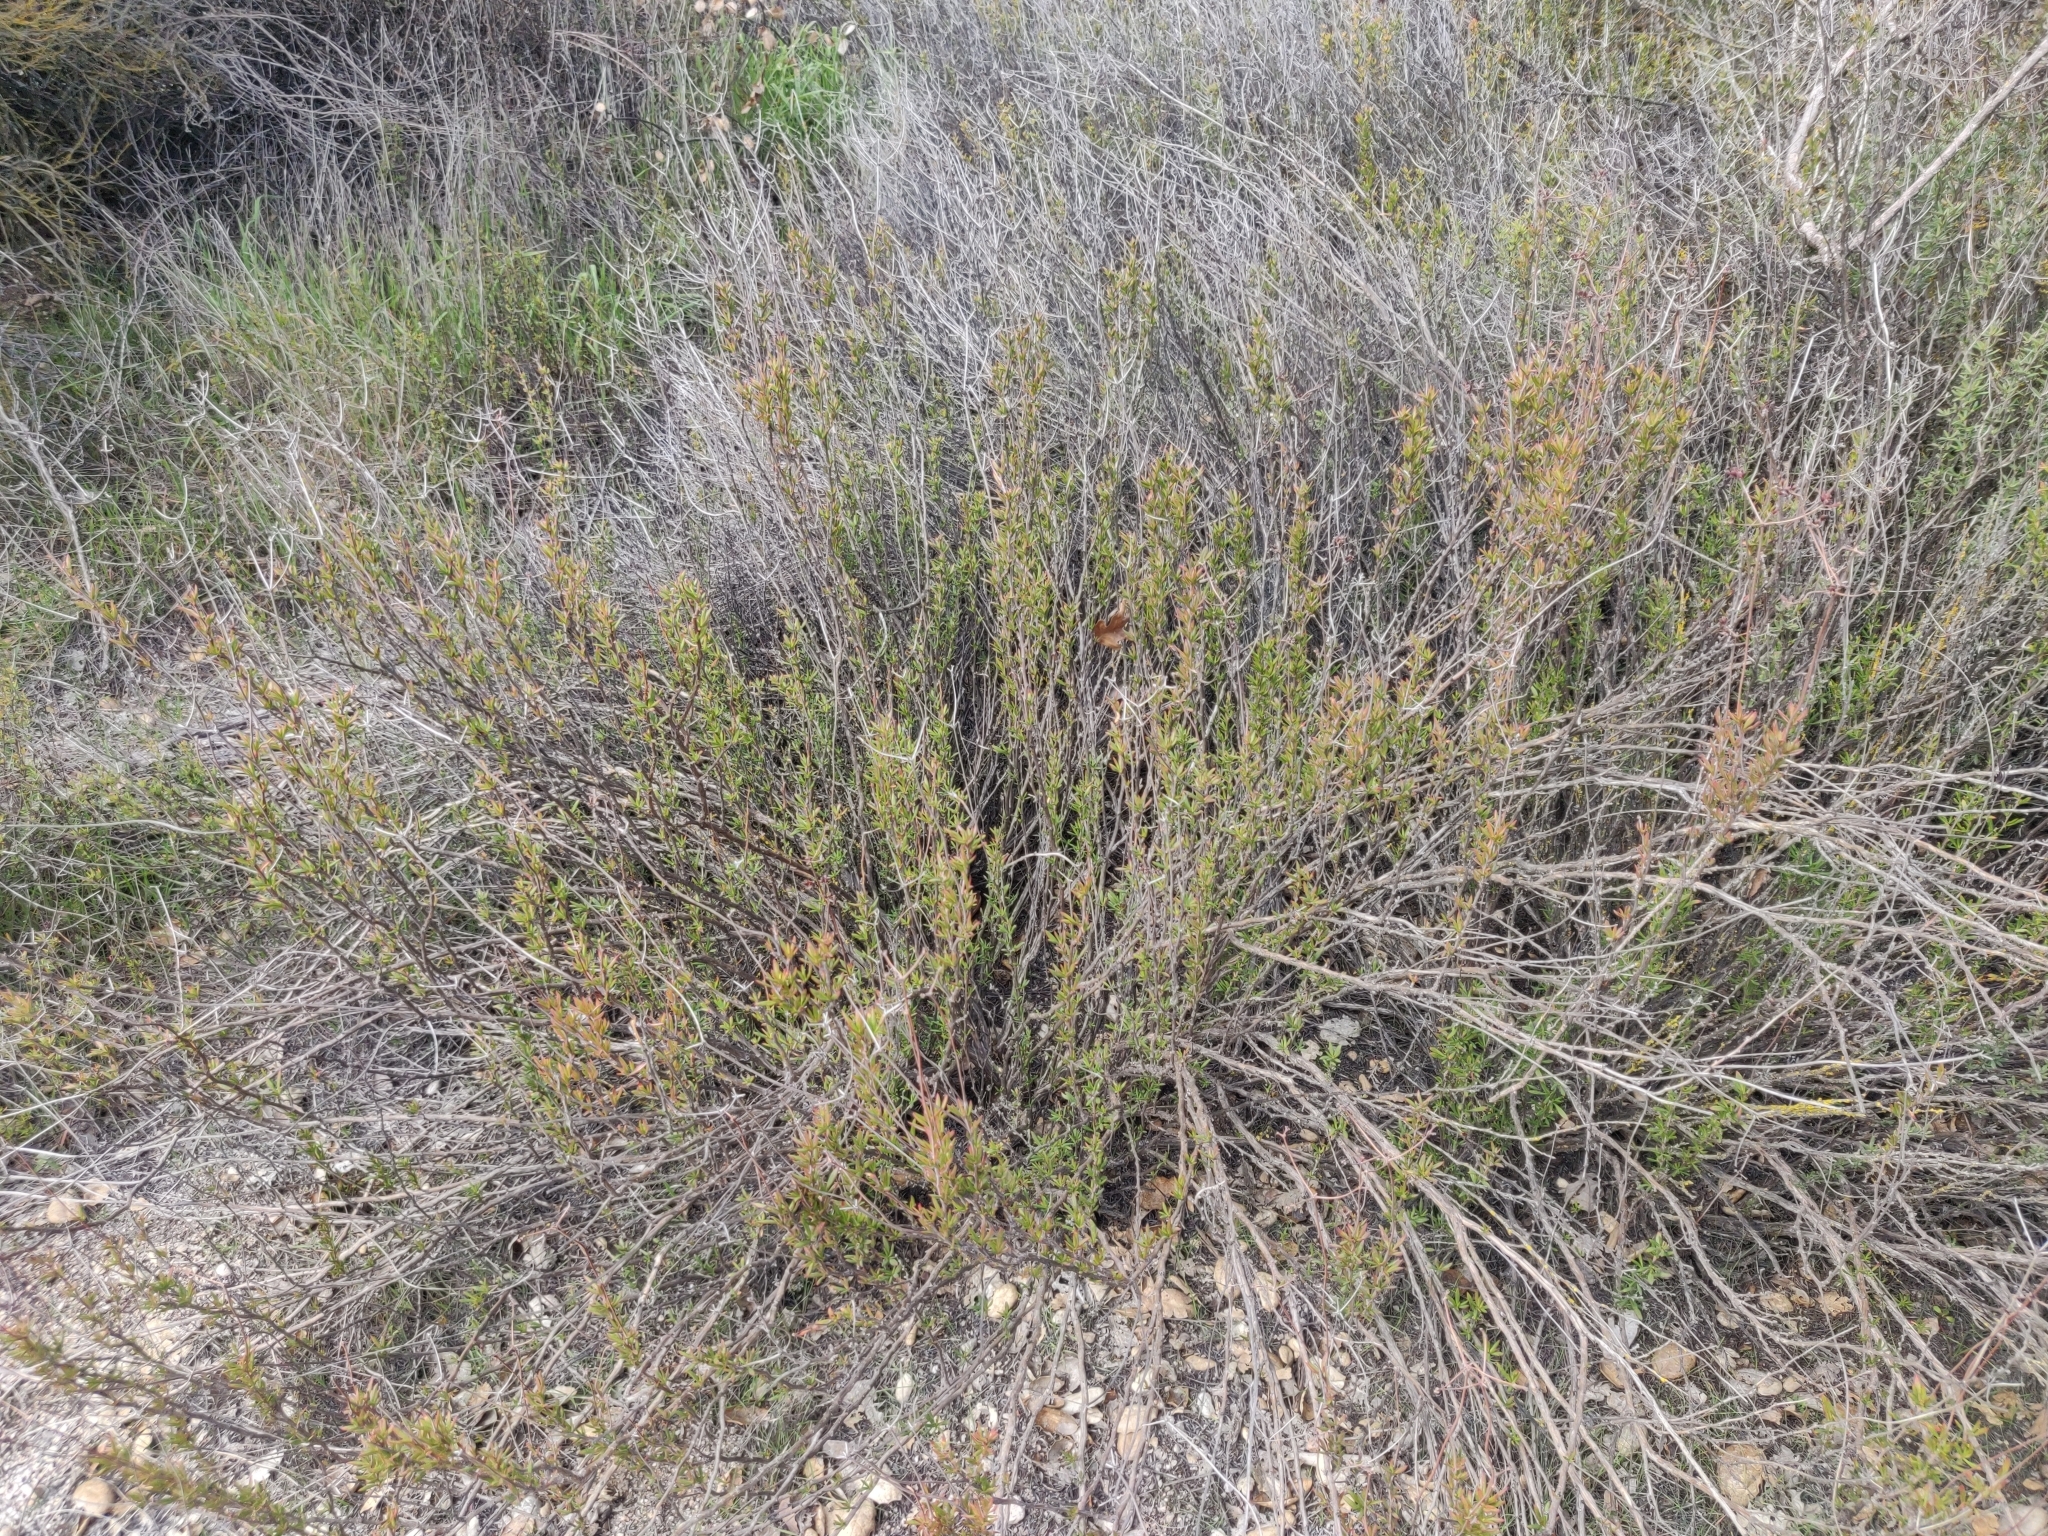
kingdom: Plantae
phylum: Tracheophyta
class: Magnoliopsida
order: Caryophyllales
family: Polygonaceae
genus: Eriogonum
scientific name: Eriogonum fasciculatum
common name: California wild buckwheat
